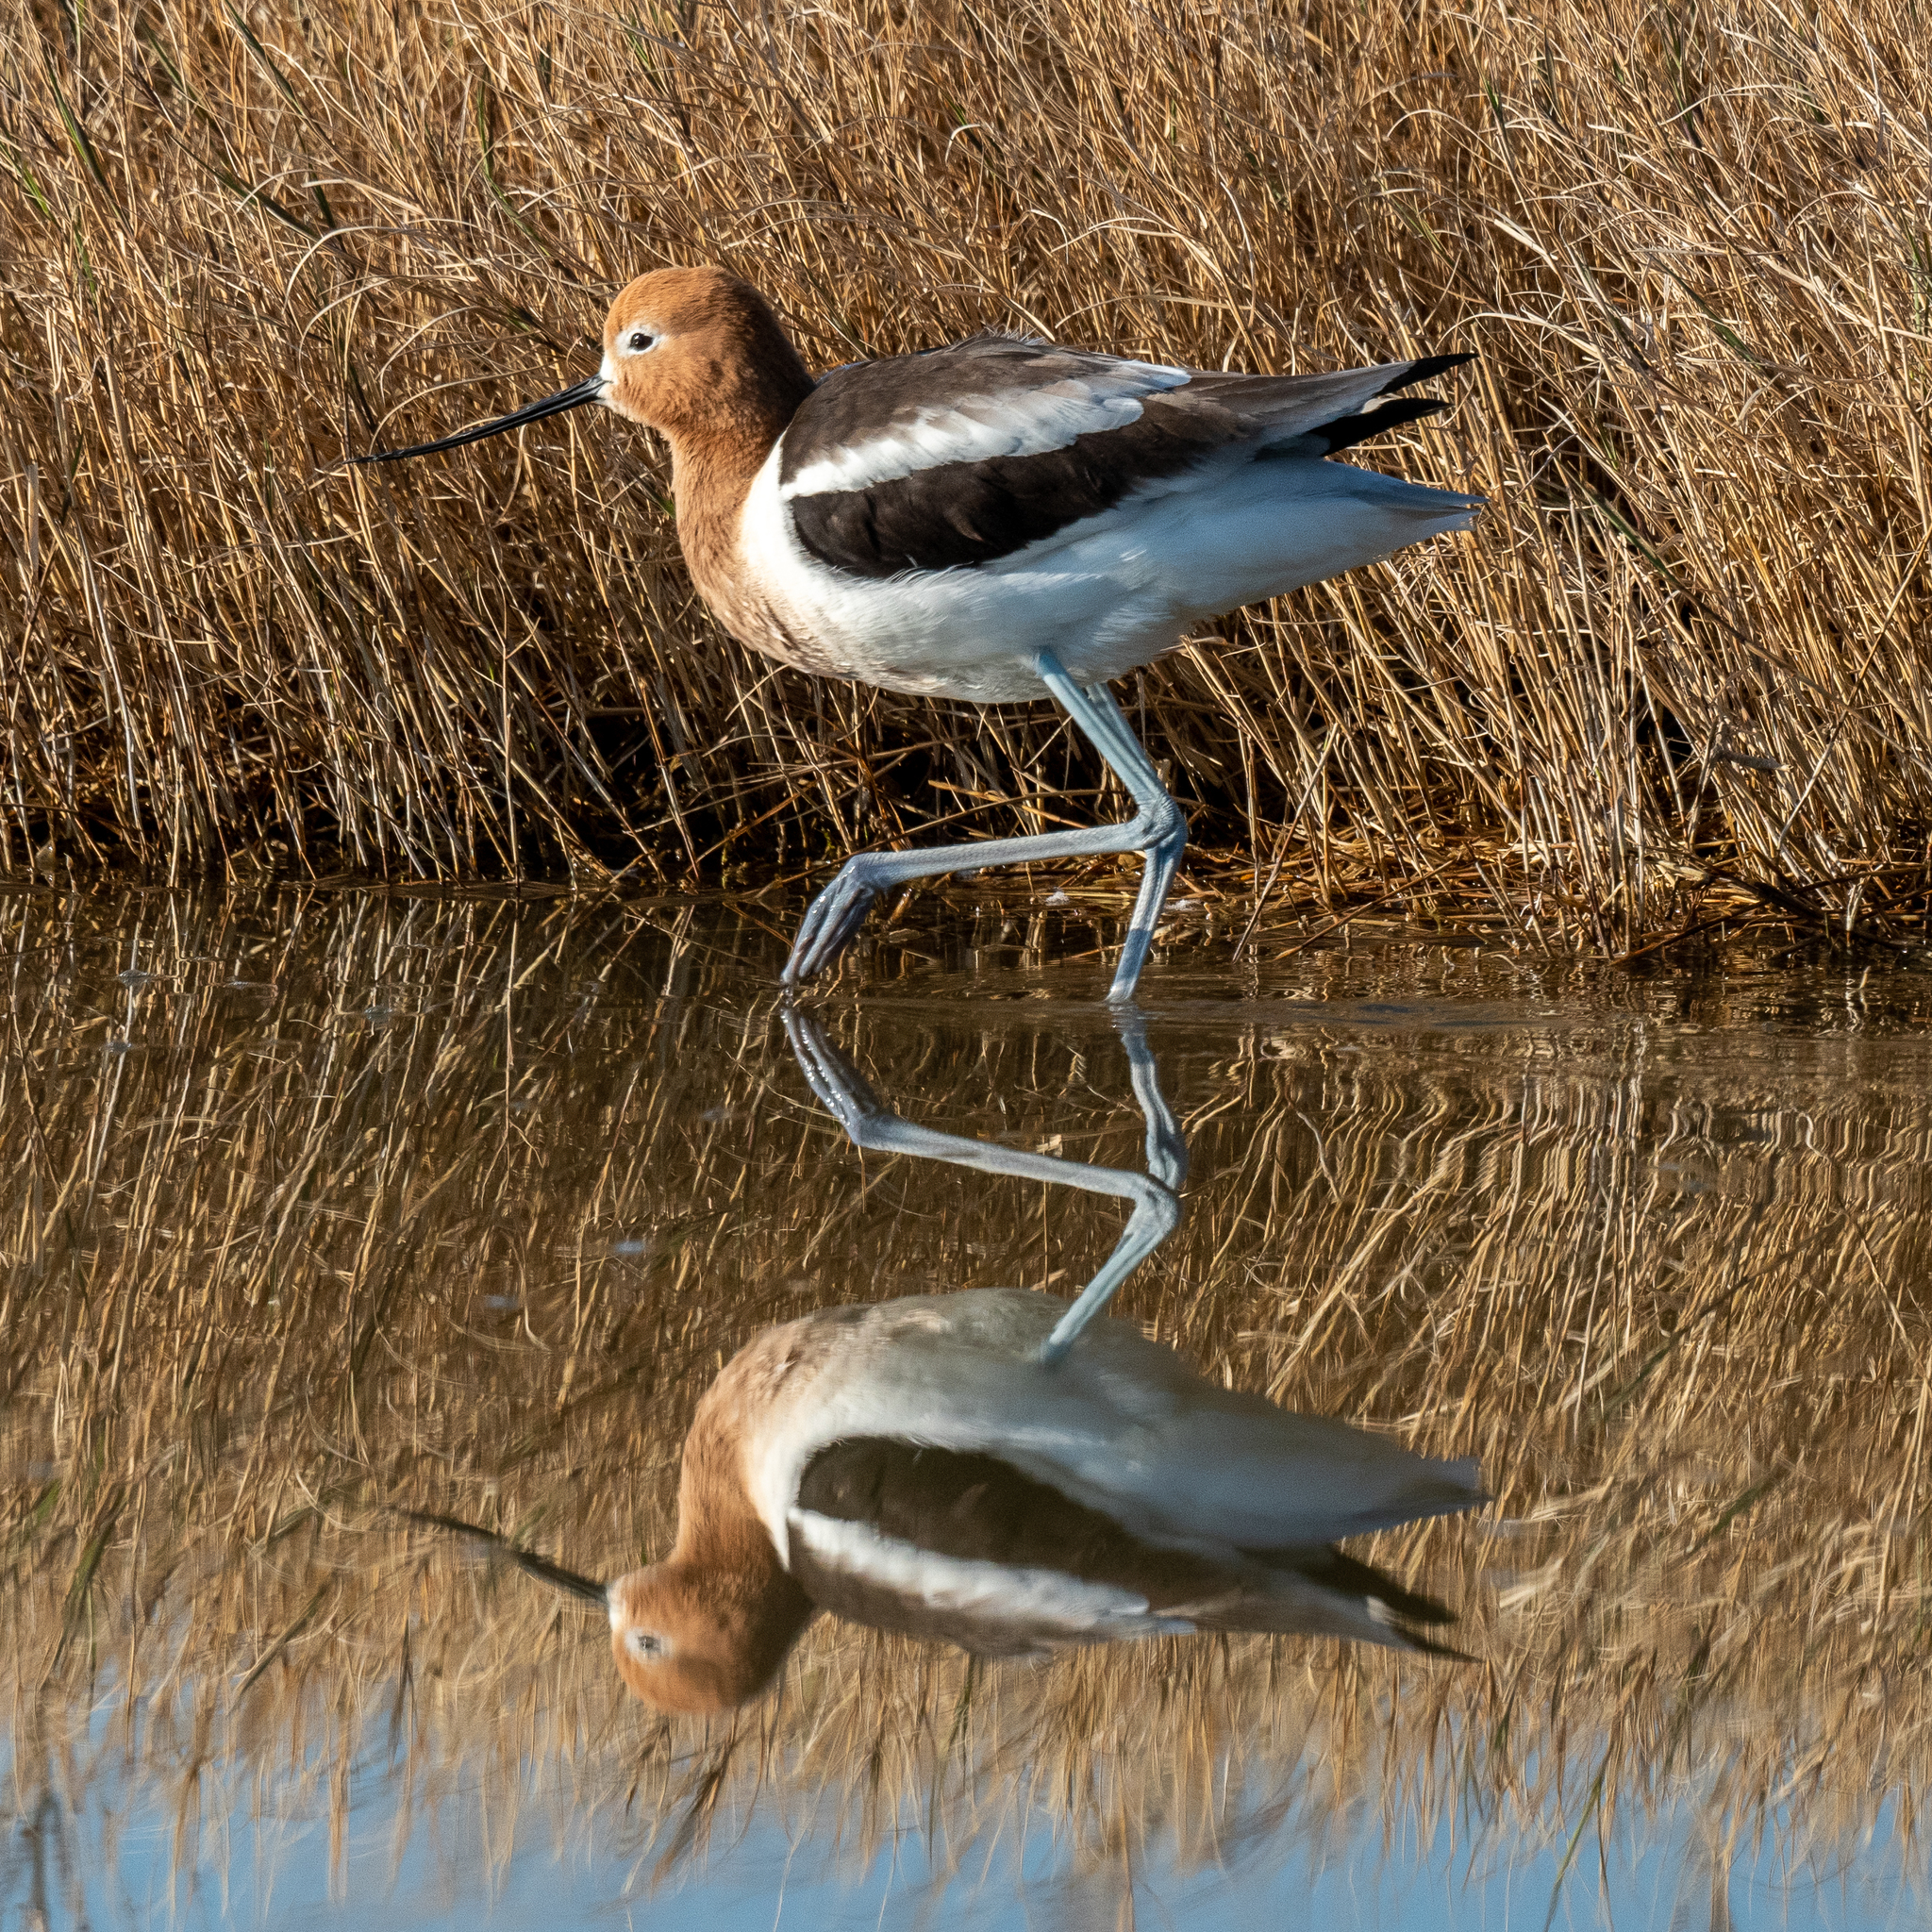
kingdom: Animalia
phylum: Chordata
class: Aves
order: Charadriiformes
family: Recurvirostridae
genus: Recurvirostra
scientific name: Recurvirostra americana
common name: American avocet
